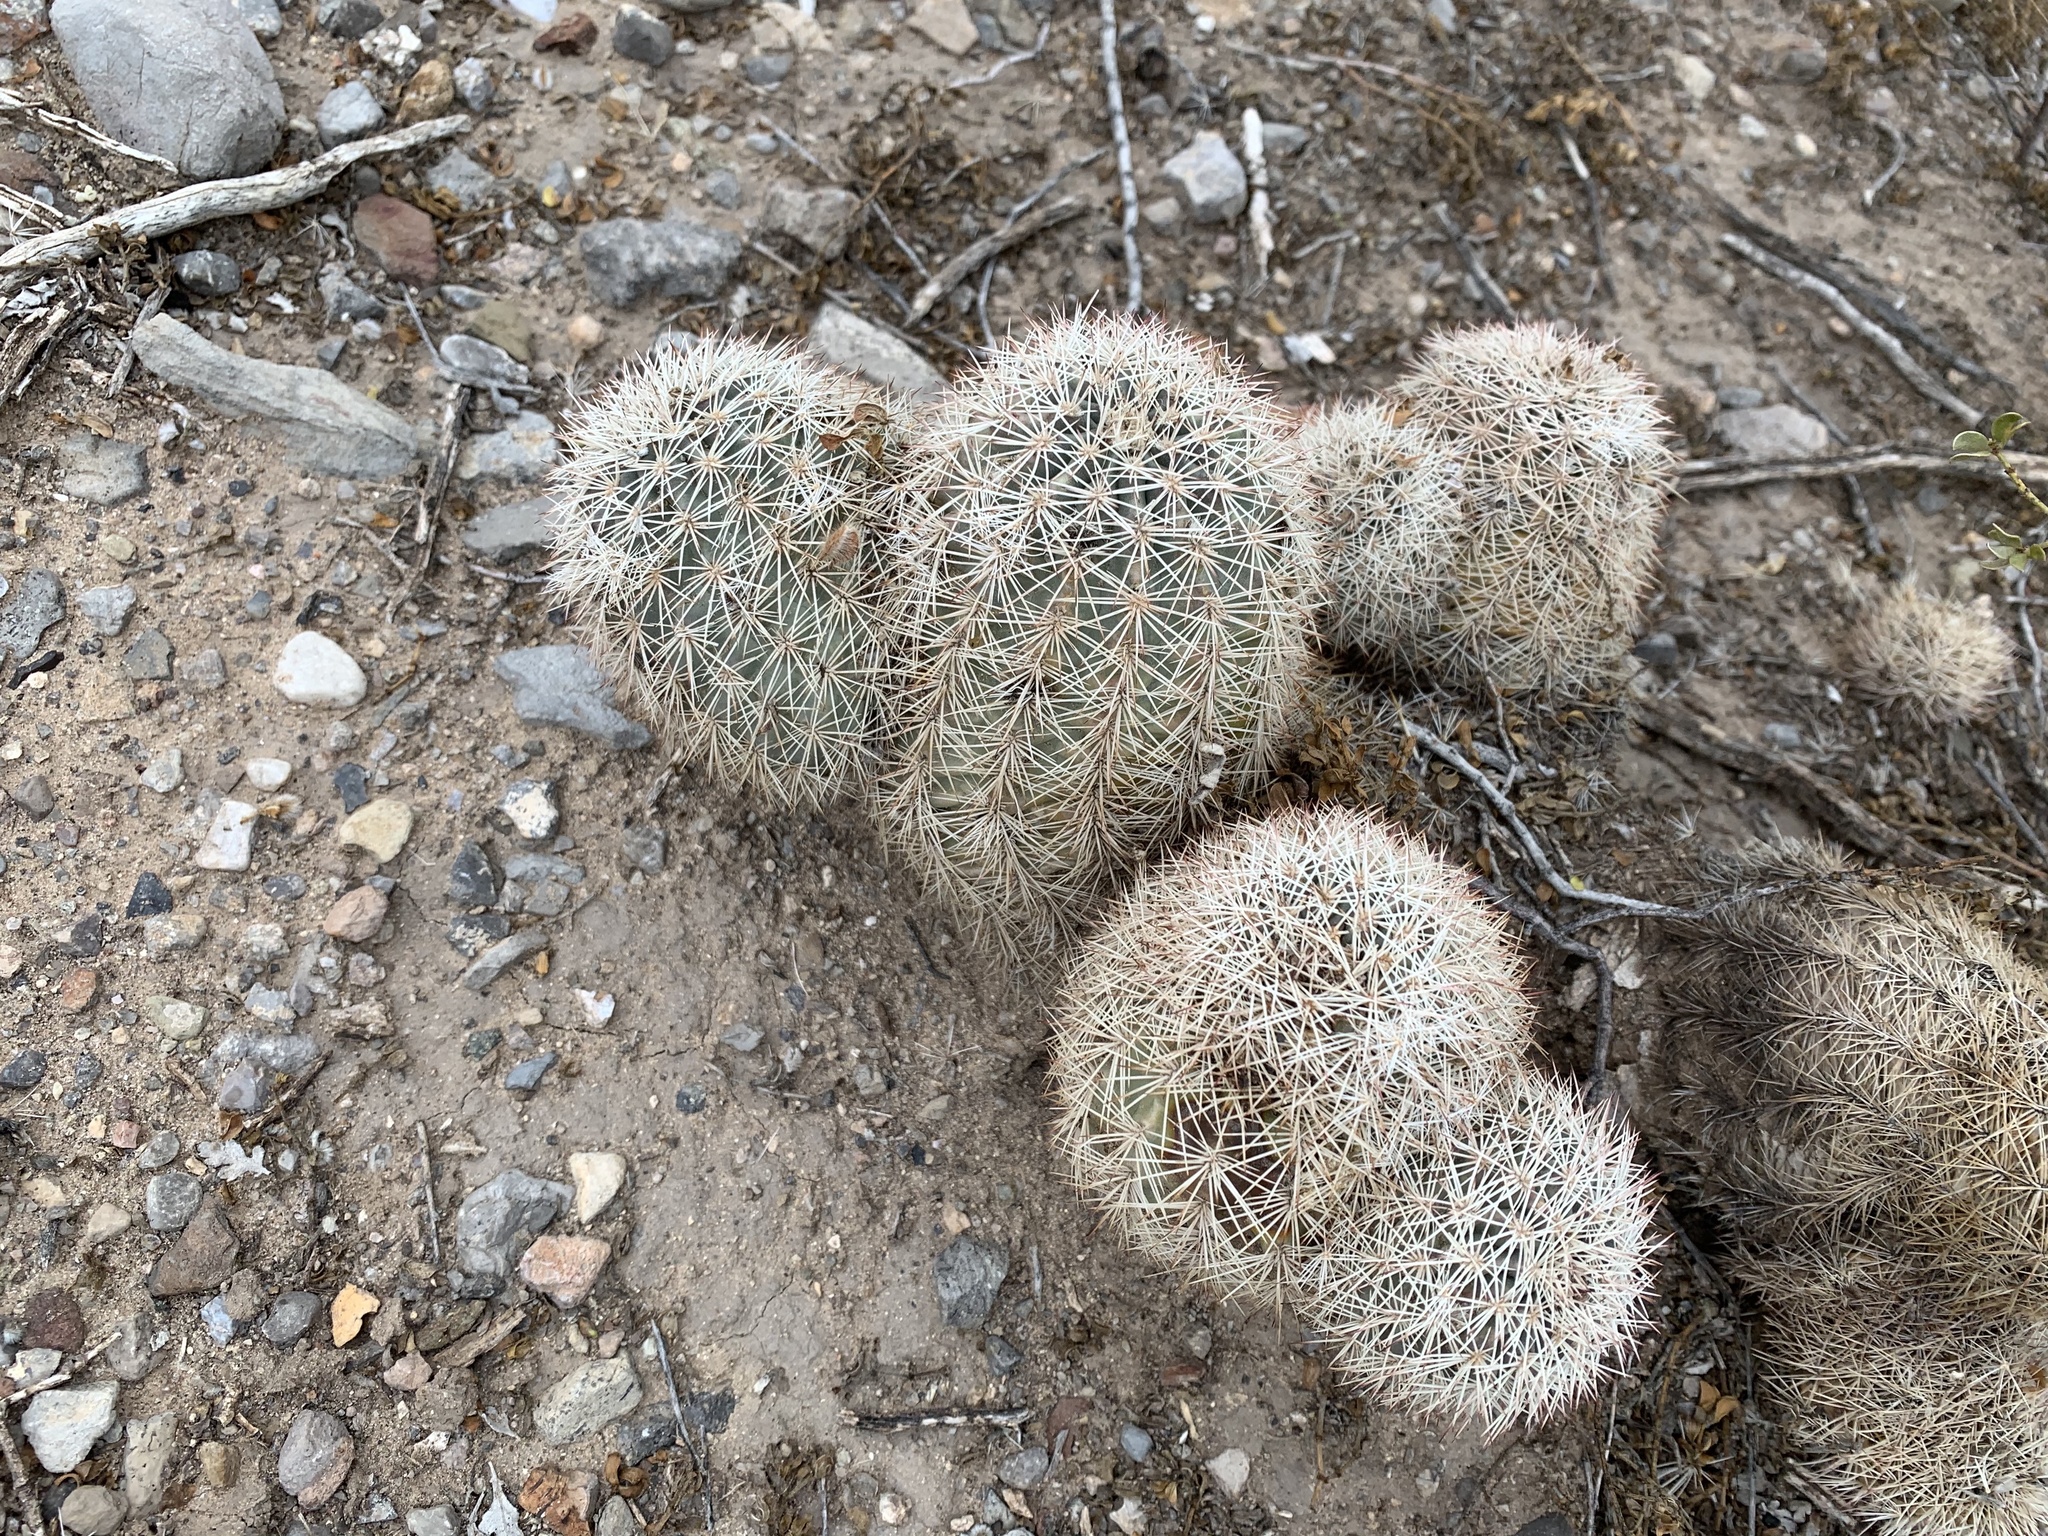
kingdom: Plantae
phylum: Tracheophyta
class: Magnoliopsida
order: Caryophyllales
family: Cactaceae
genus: Echinocereus
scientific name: Echinocereus dasyacanthus
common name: Spiny hedgehog cactus
